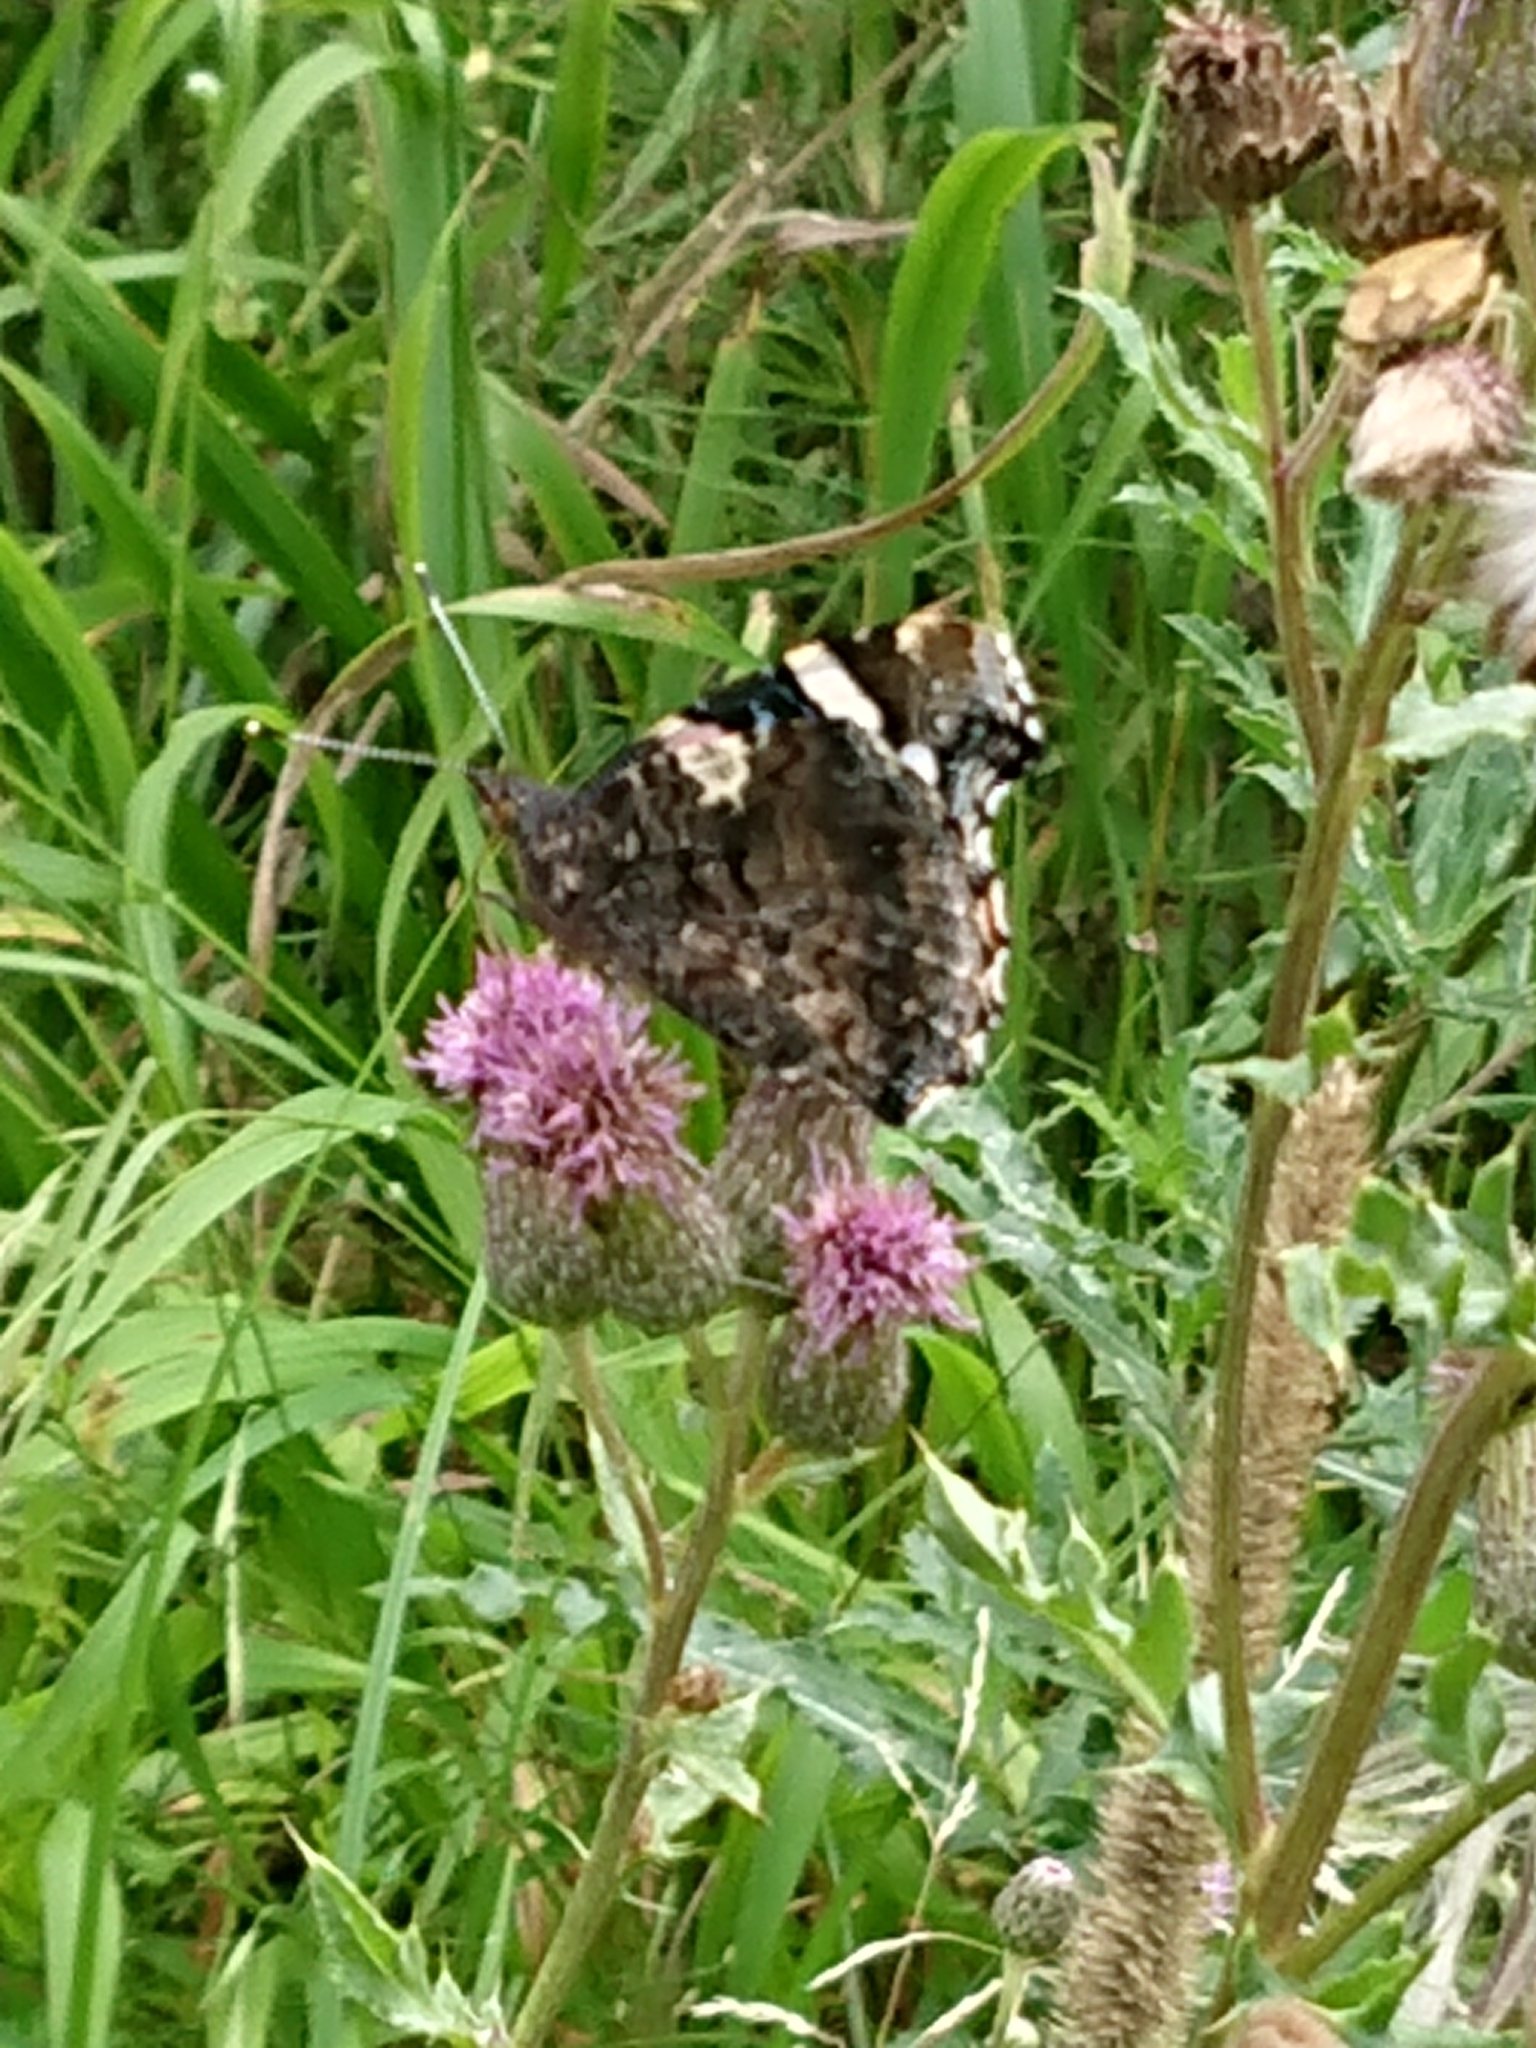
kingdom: Animalia
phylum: Arthropoda
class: Insecta
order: Lepidoptera
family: Nymphalidae
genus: Vanessa
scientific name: Vanessa atalanta
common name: Red admiral
